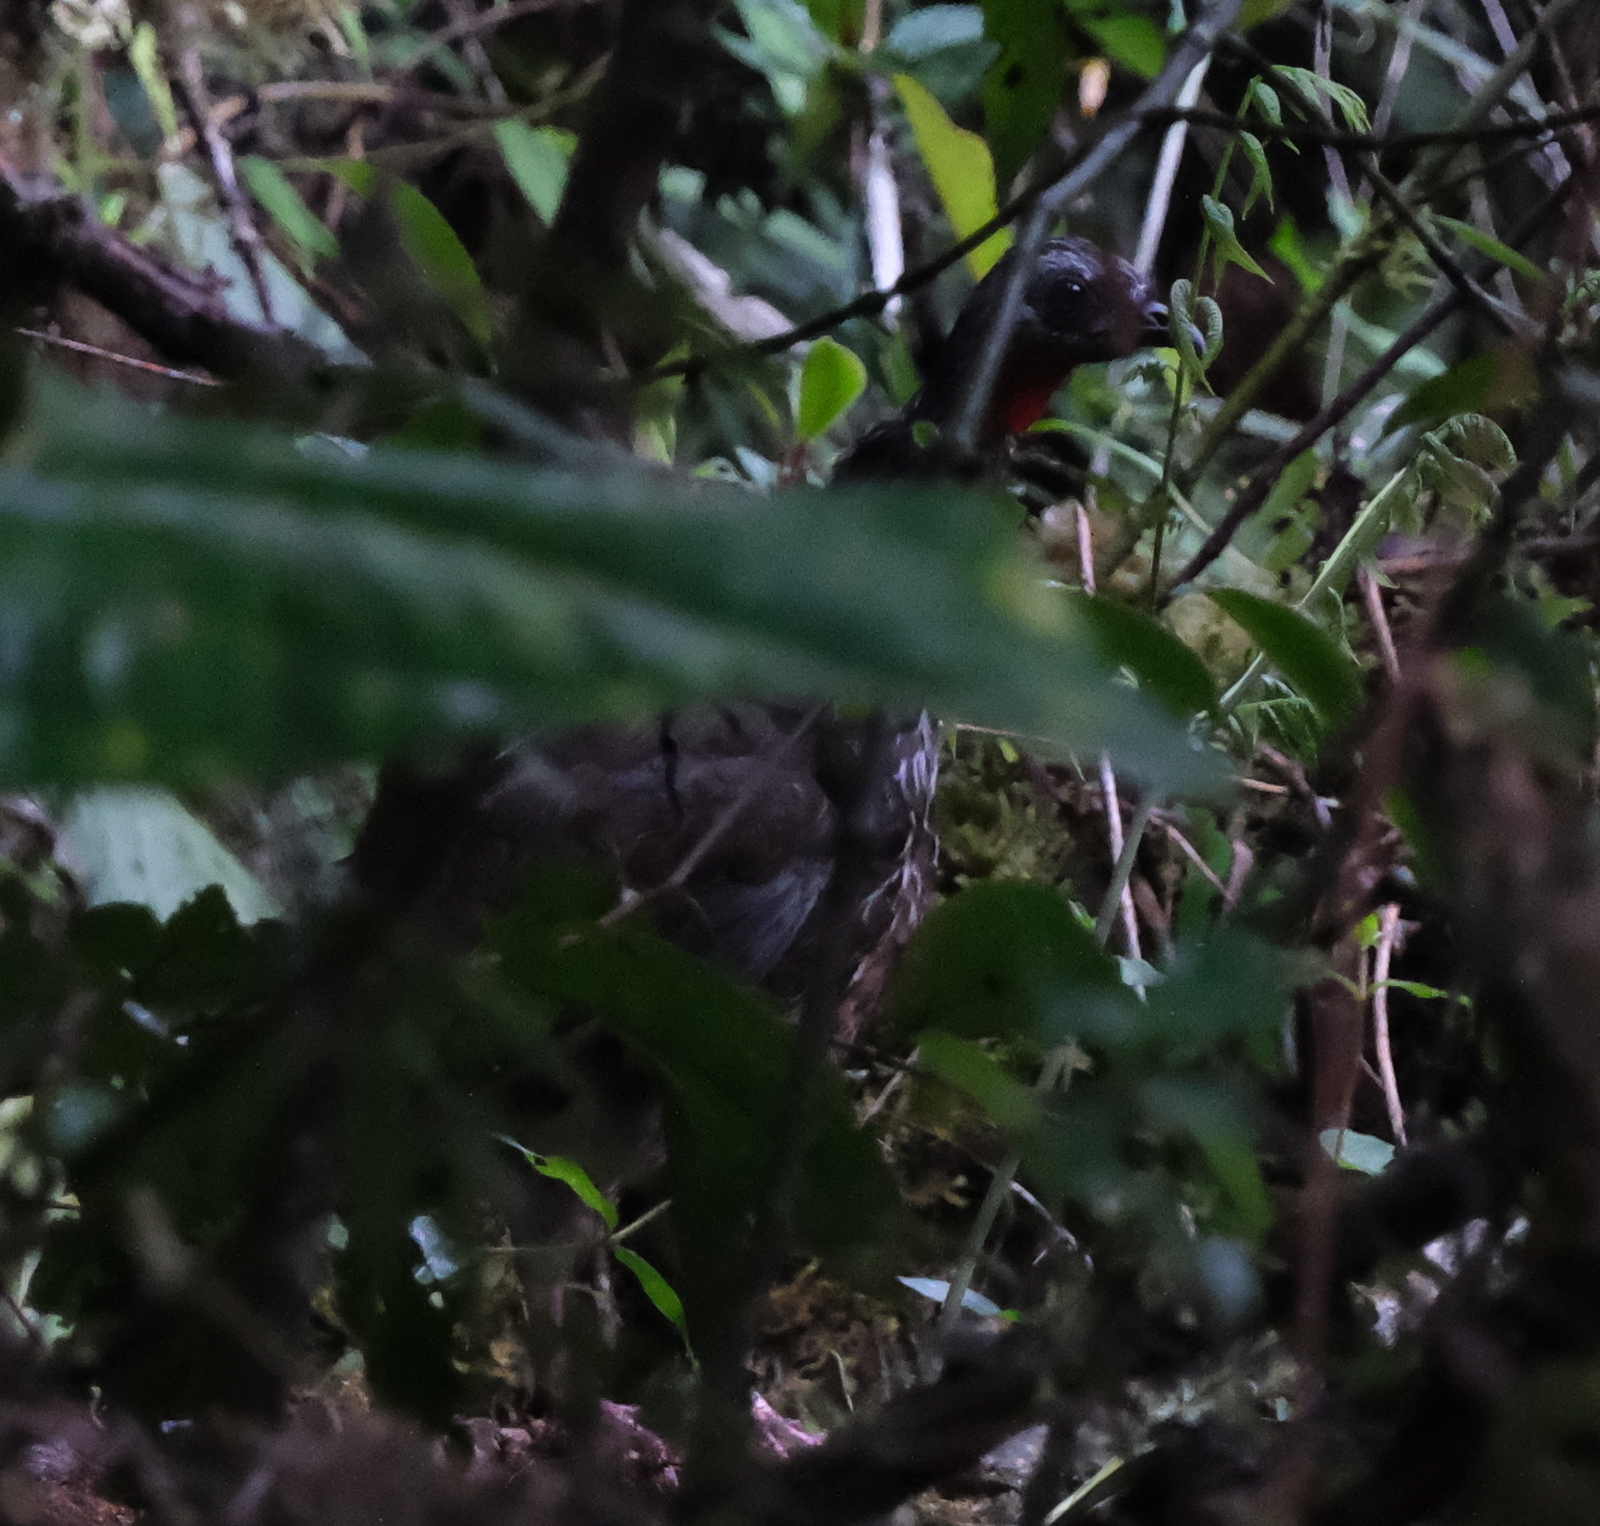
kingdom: Animalia
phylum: Chordata
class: Aves
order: Galliformes
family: Cracidae
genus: Penelope
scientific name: Penelope montagnii
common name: Andean guan
